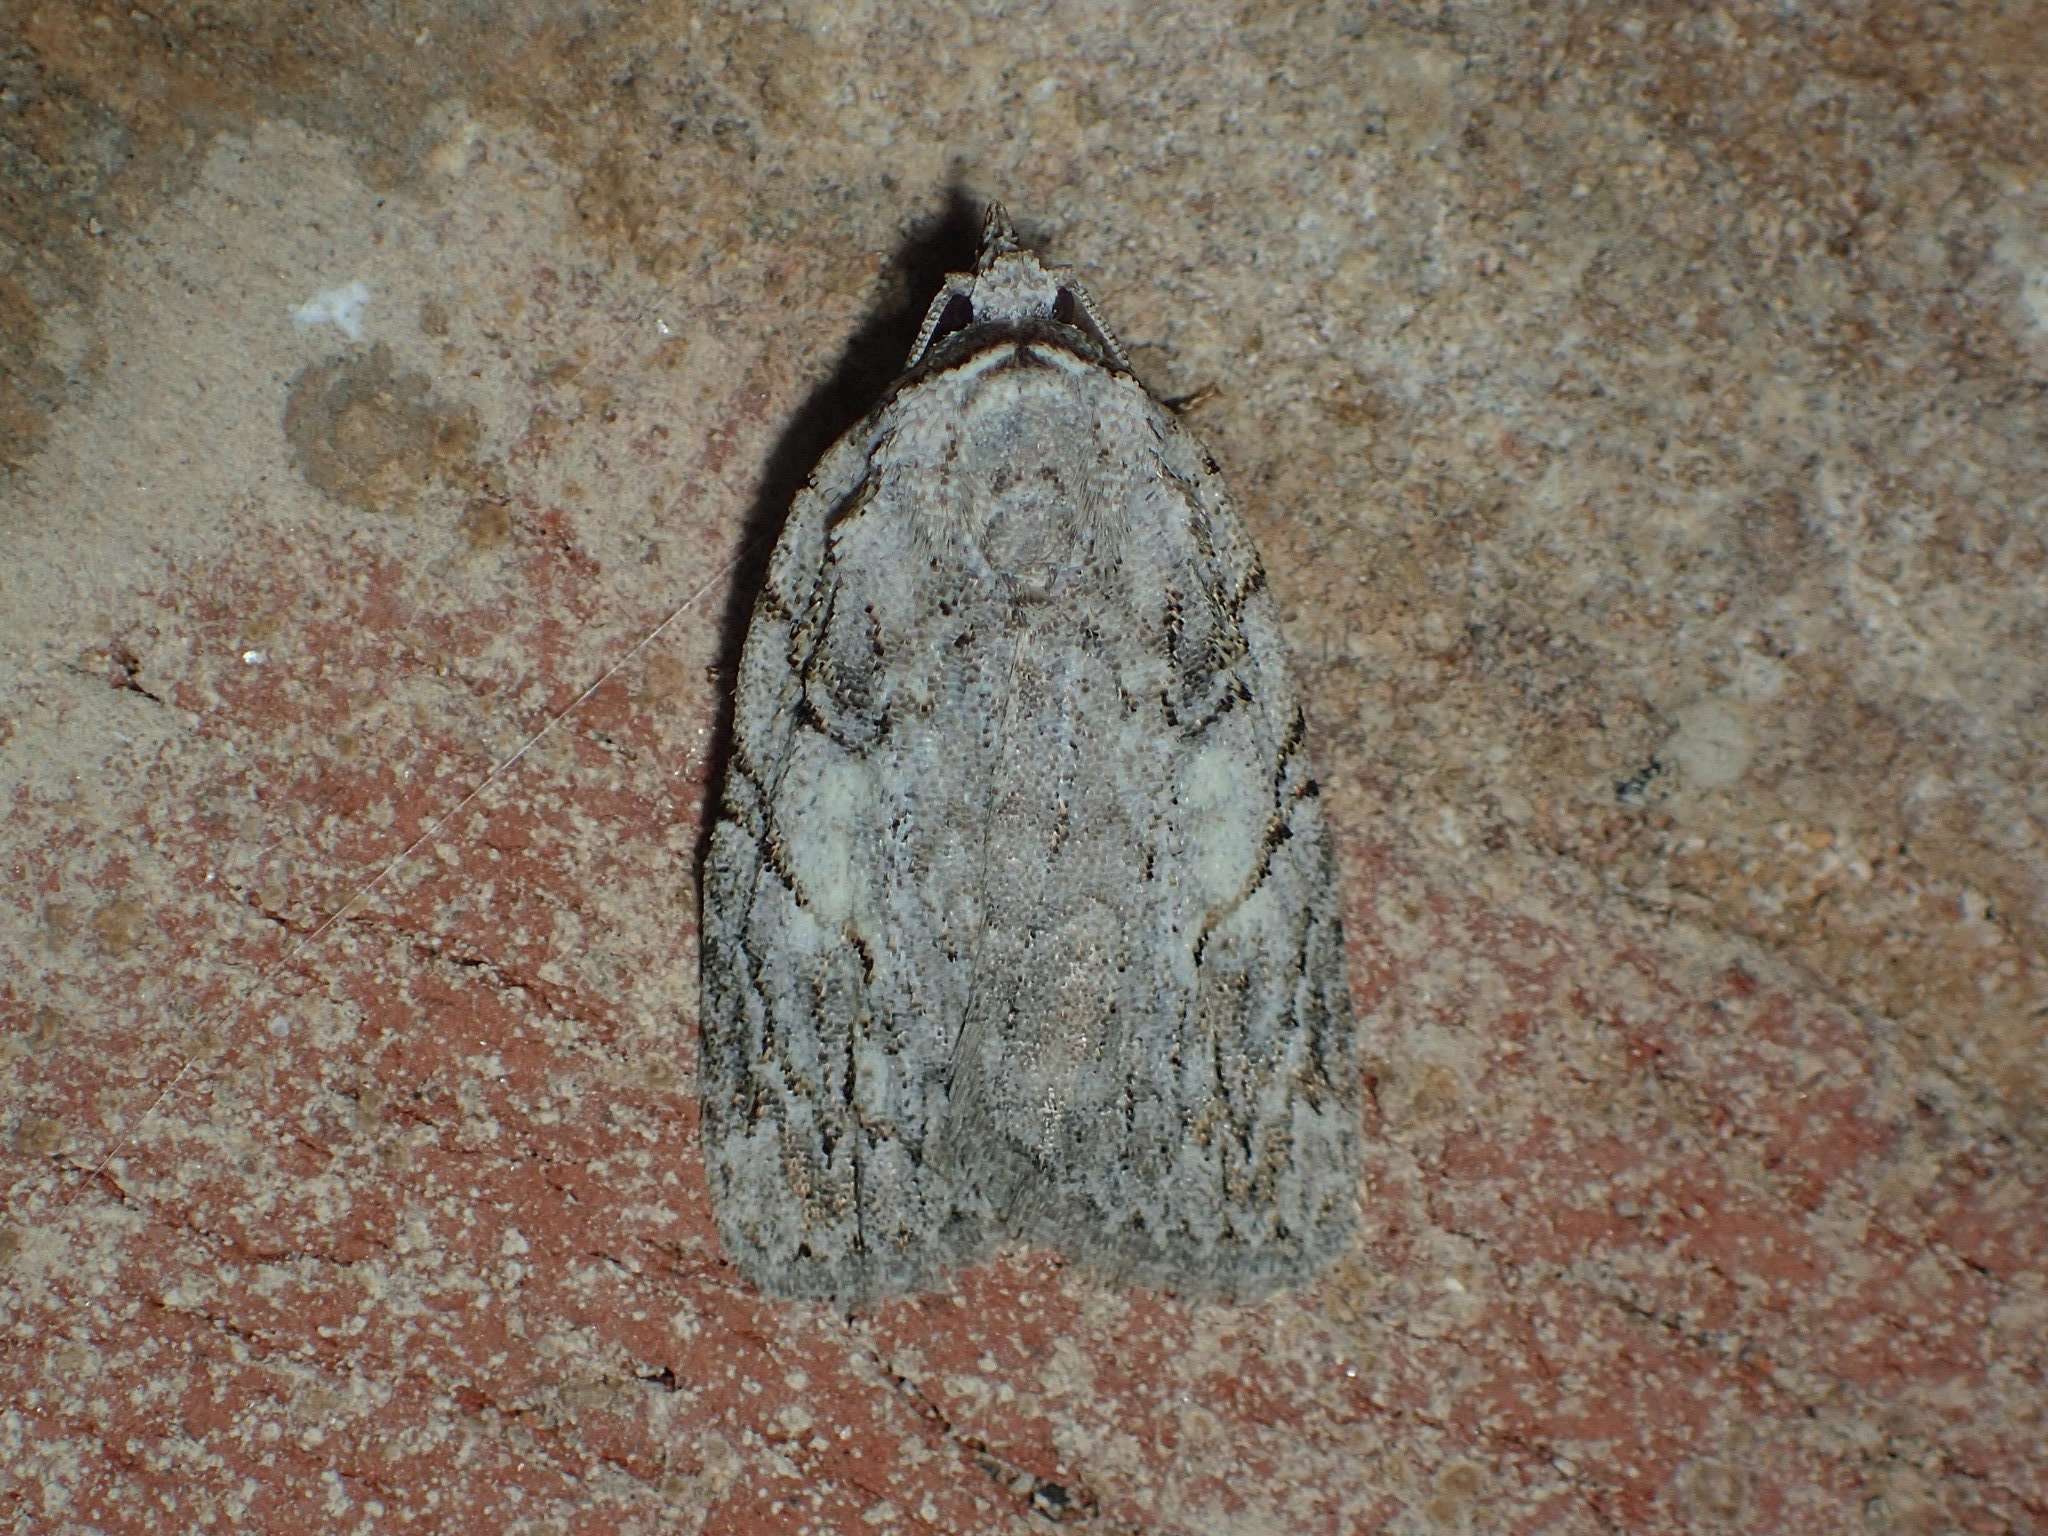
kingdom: Animalia
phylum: Arthropoda
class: Insecta
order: Lepidoptera
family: Noctuidae
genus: Balsa
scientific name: Balsa labecula
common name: White-blotched balsa moth
